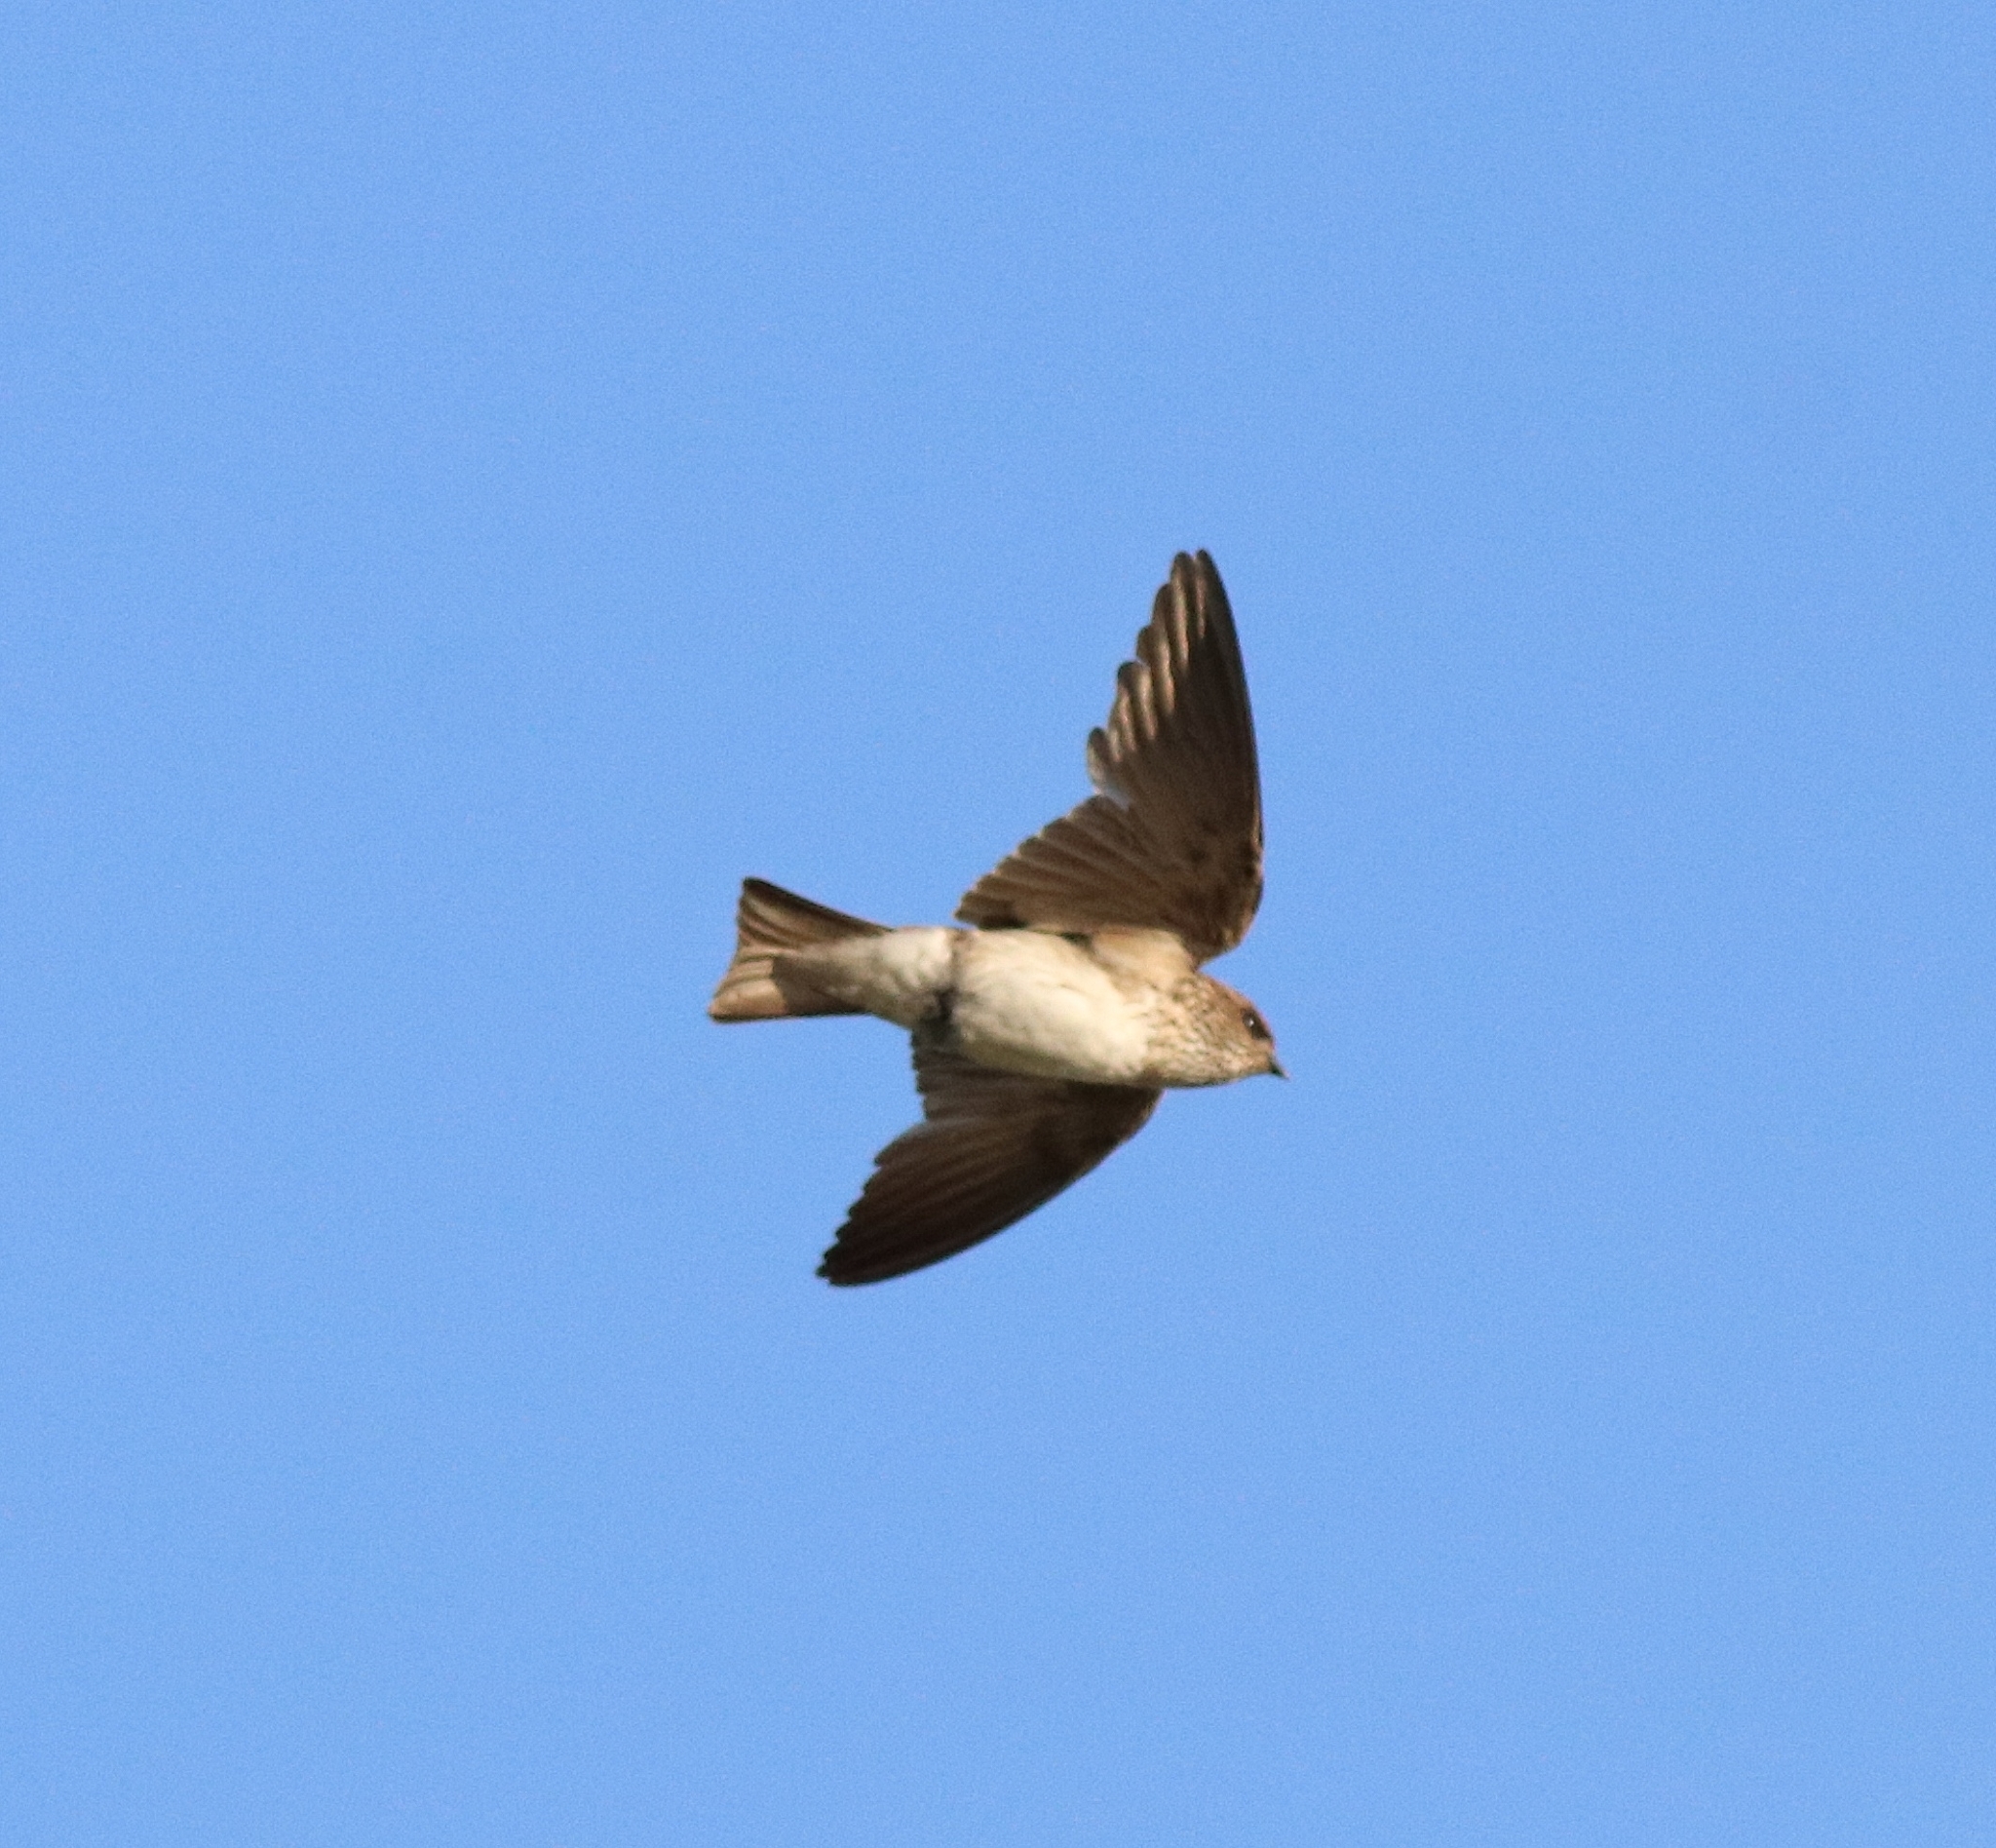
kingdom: Animalia
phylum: Chordata
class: Aves
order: Passeriformes
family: Hirundinidae
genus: Petrochelidon
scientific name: Petrochelidon fluvicola
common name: Streak-throated swallow
